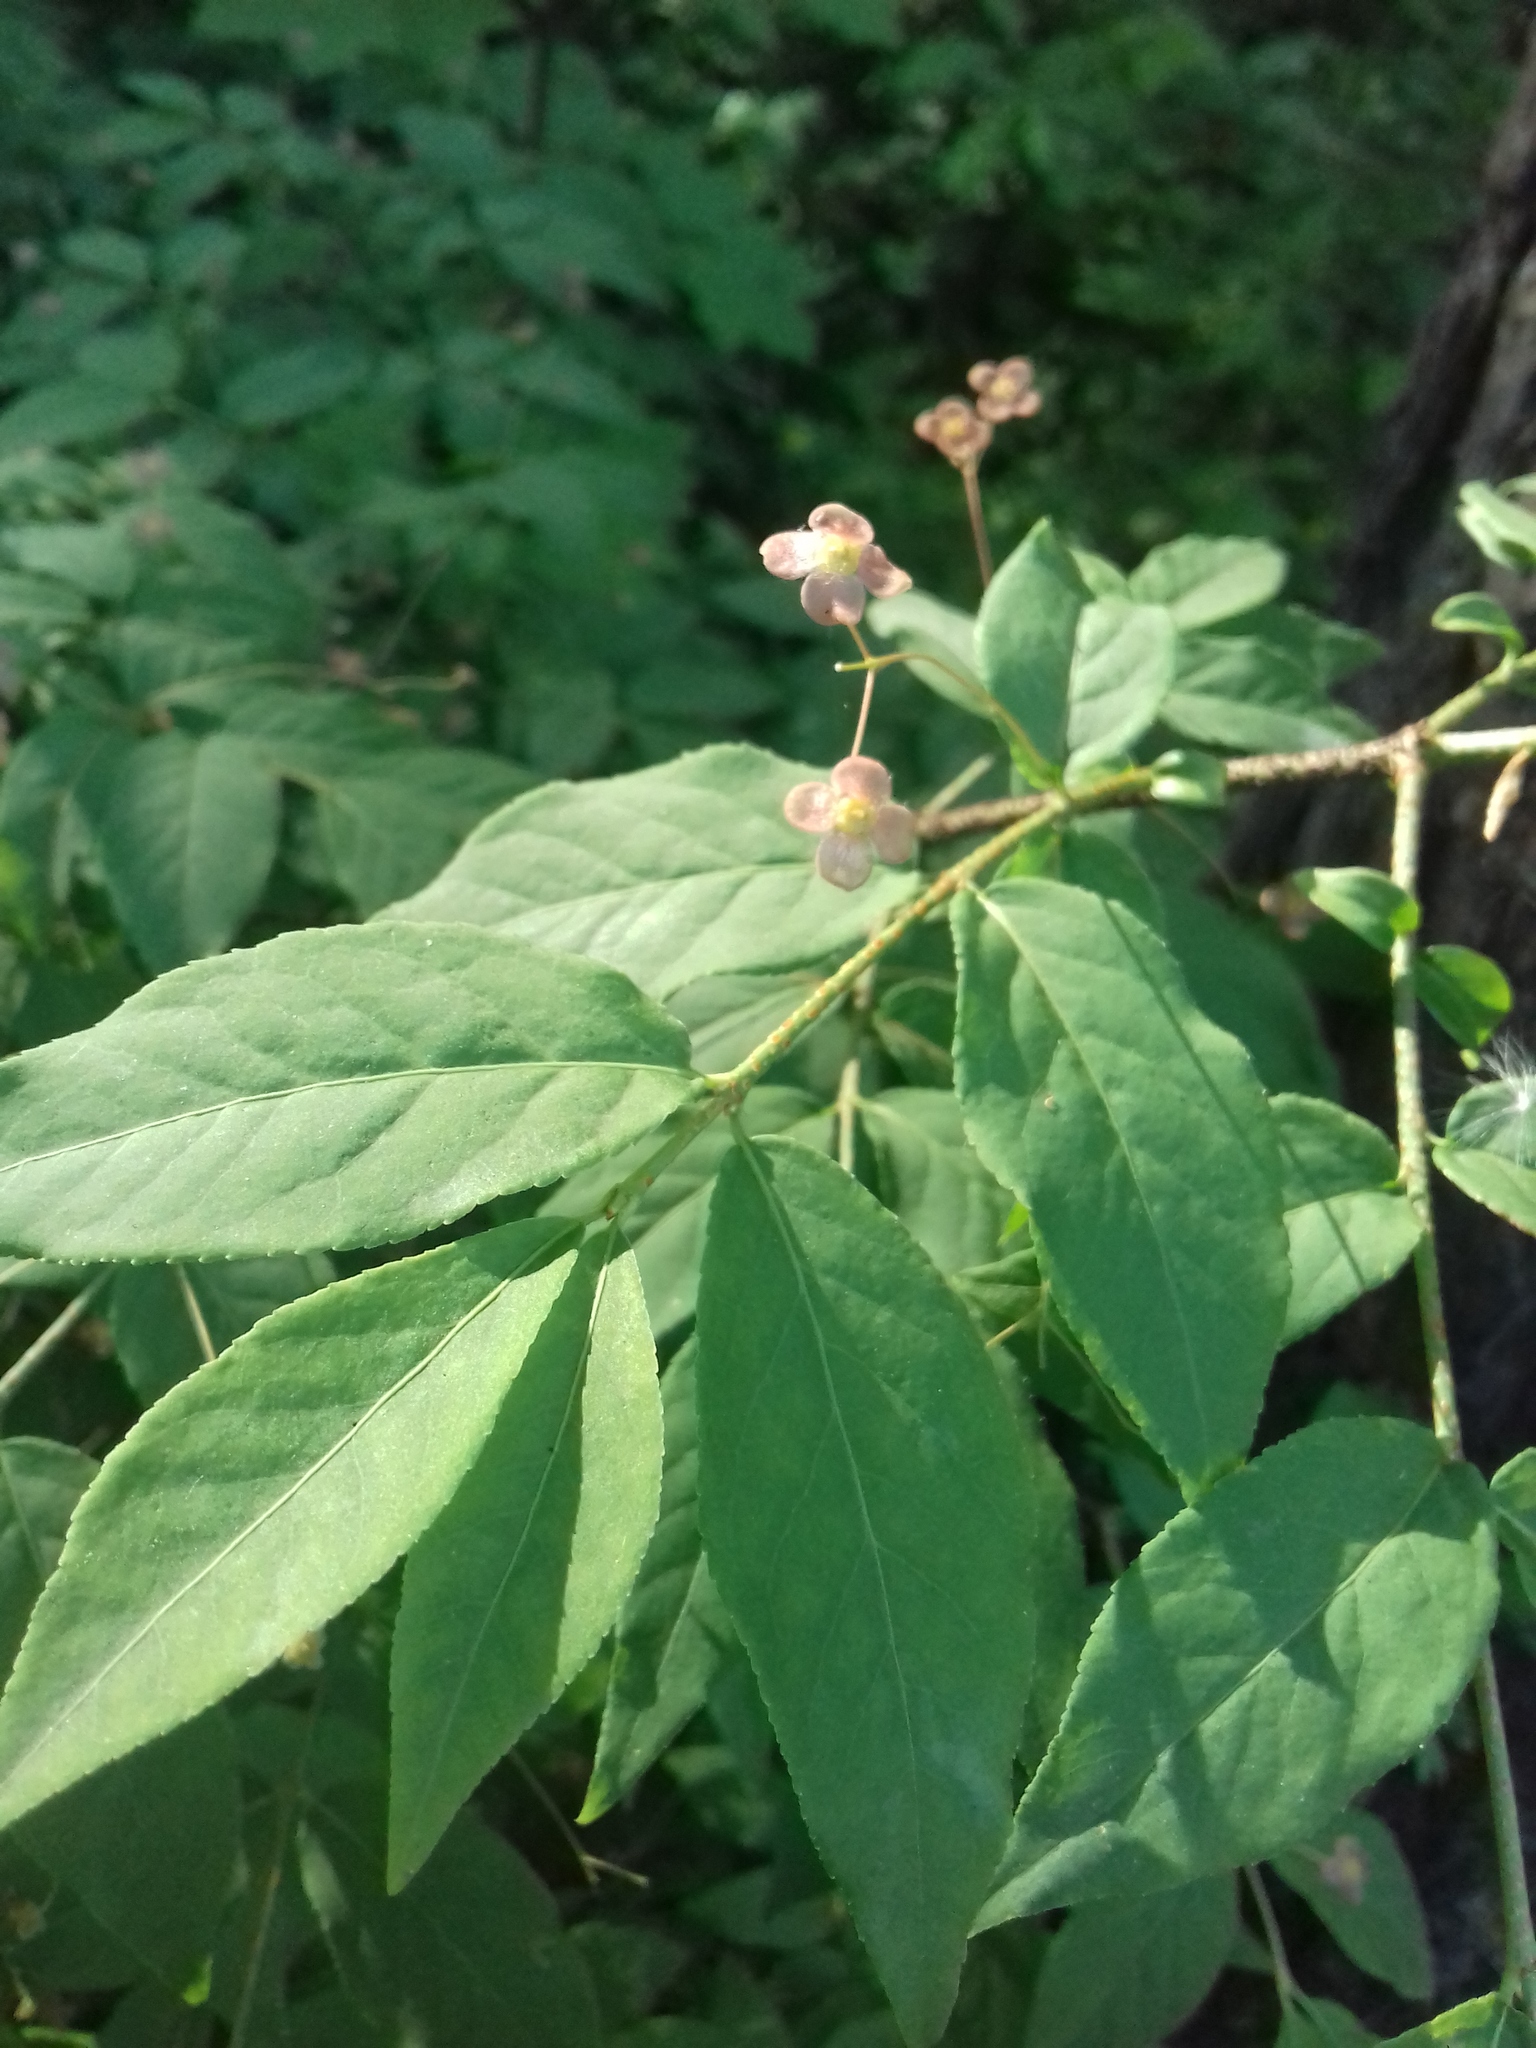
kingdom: Plantae
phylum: Tracheophyta
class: Magnoliopsida
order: Celastrales
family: Celastraceae
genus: Euonymus
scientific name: Euonymus verrucosus
